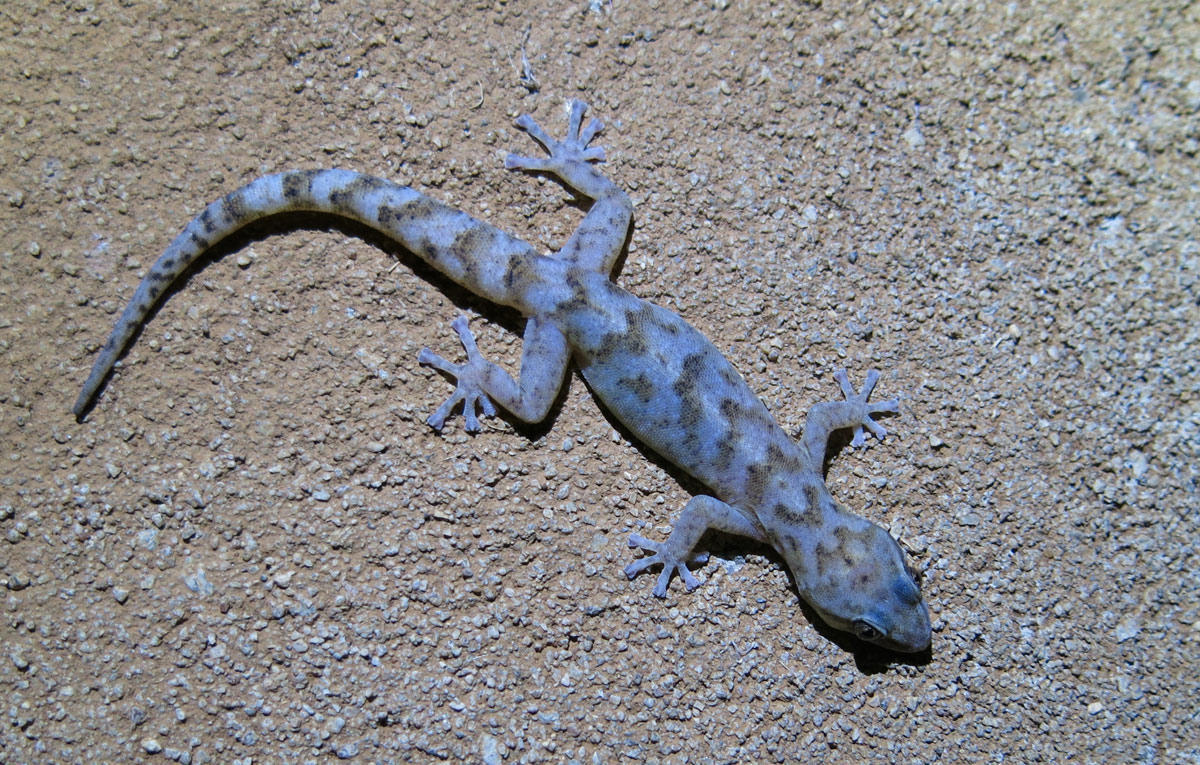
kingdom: Animalia
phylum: Chordata
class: Squamata
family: Gekkonidae
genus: Afroedura
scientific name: Afroedura pienaari
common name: Pienaar’s rock gecko
